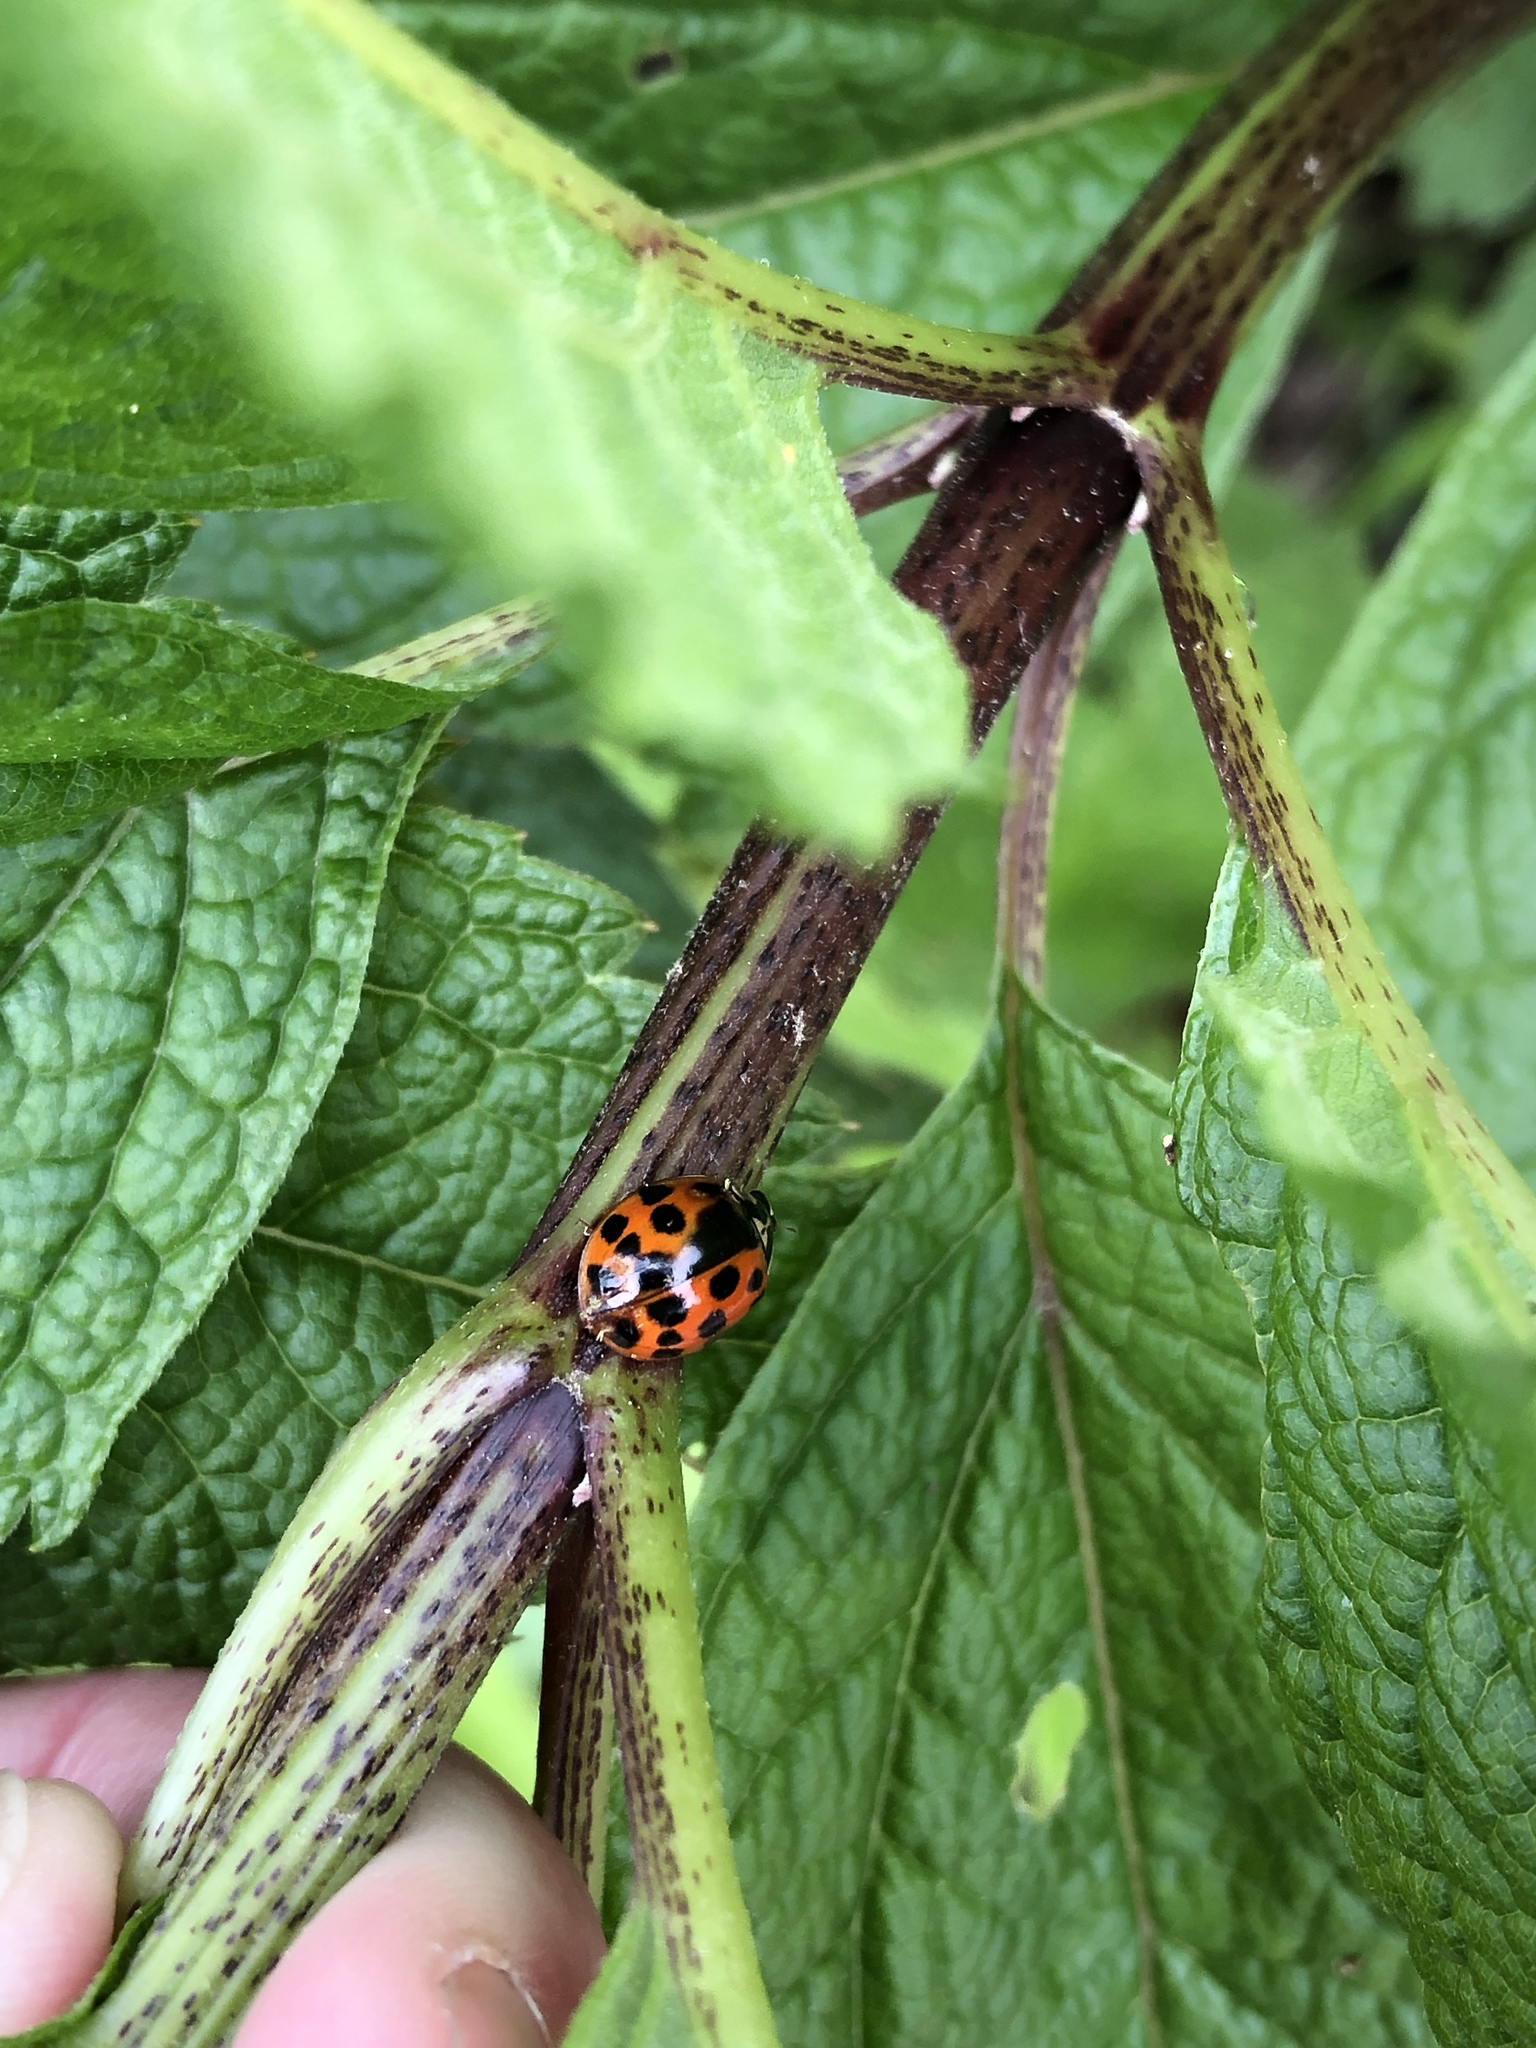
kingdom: Animalia
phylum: Arthropoda
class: Insecta
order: Coleoptera
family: Coccinellidae
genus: Harmonia
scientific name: Harmonia axyridis
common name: Harlequin ladybird
